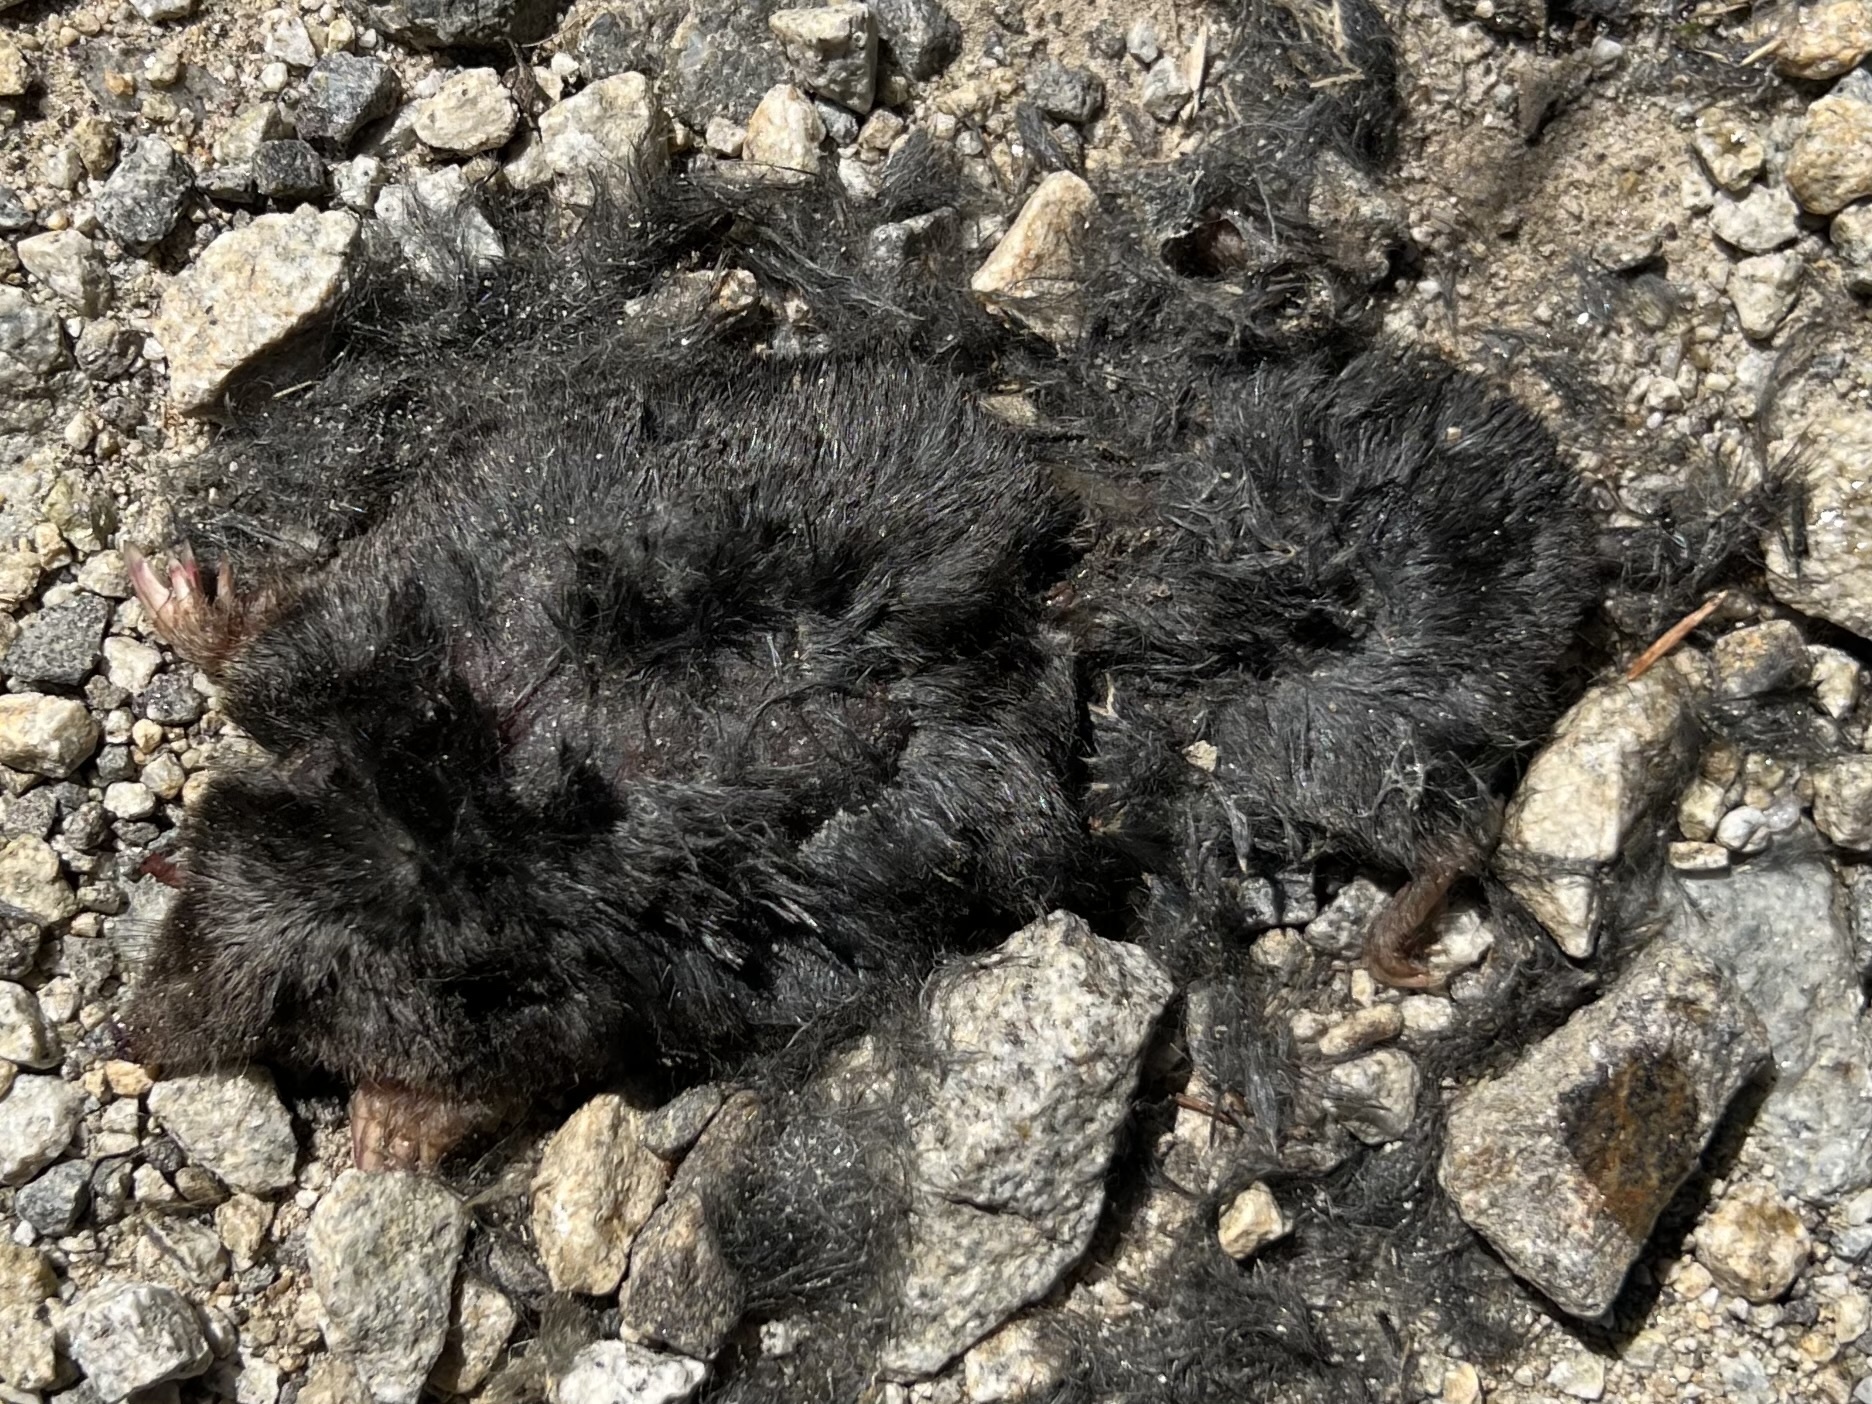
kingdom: Animalia
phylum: Chordata
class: Mammalia
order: Soricomorpha
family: Talpidae
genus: Talpa
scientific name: Talpa europaea
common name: European mole
